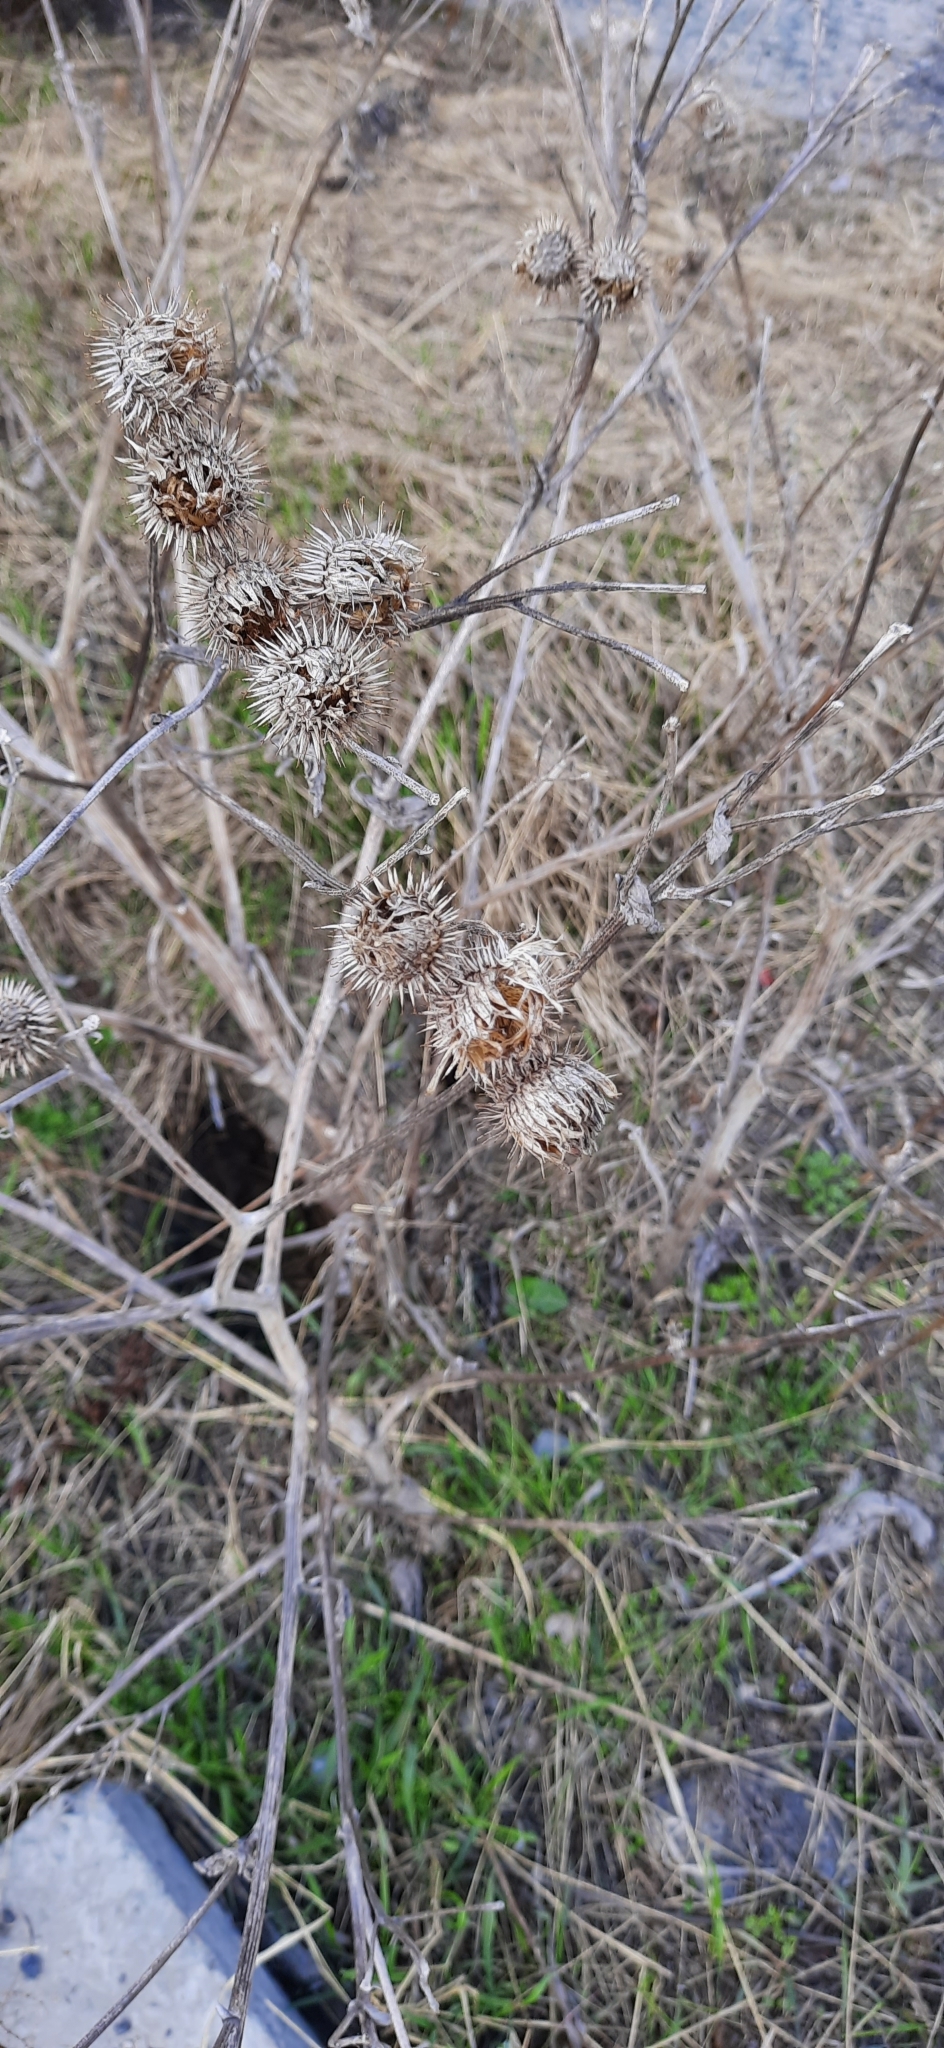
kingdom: Plantae
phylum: Tracheophyta
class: Magnoliopsida
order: Asterales
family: Asteraceae
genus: Arctium
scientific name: Arctium tomentosum
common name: Woolly burdock
